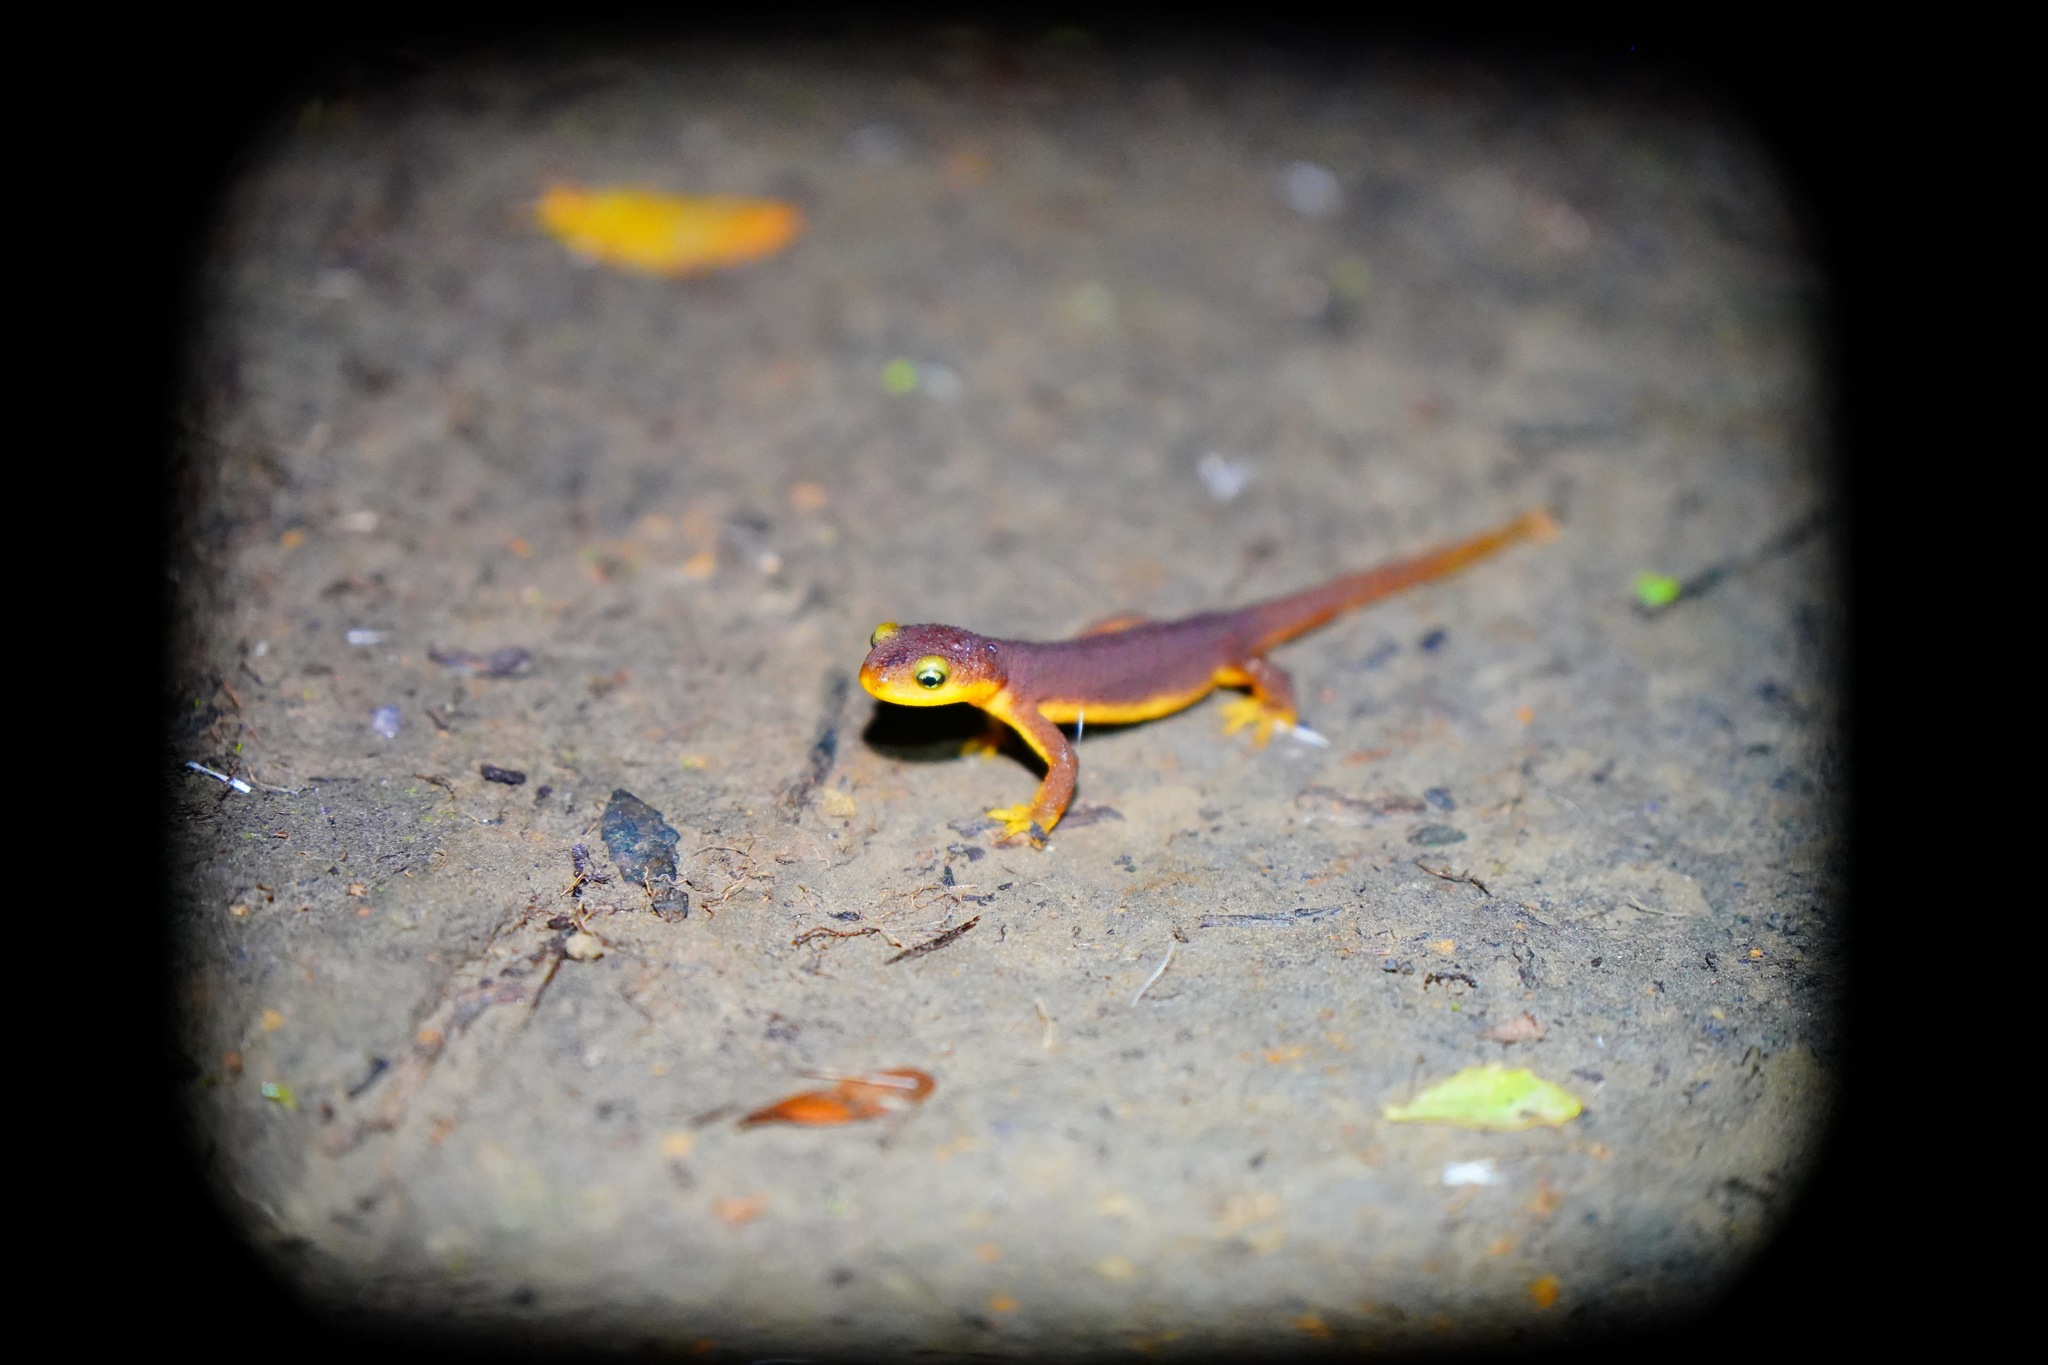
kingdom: Animalia
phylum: Chordata
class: Amphibia
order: Caudata
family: Salamandridae
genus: Taricha
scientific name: Taricha torosa
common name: California newt
